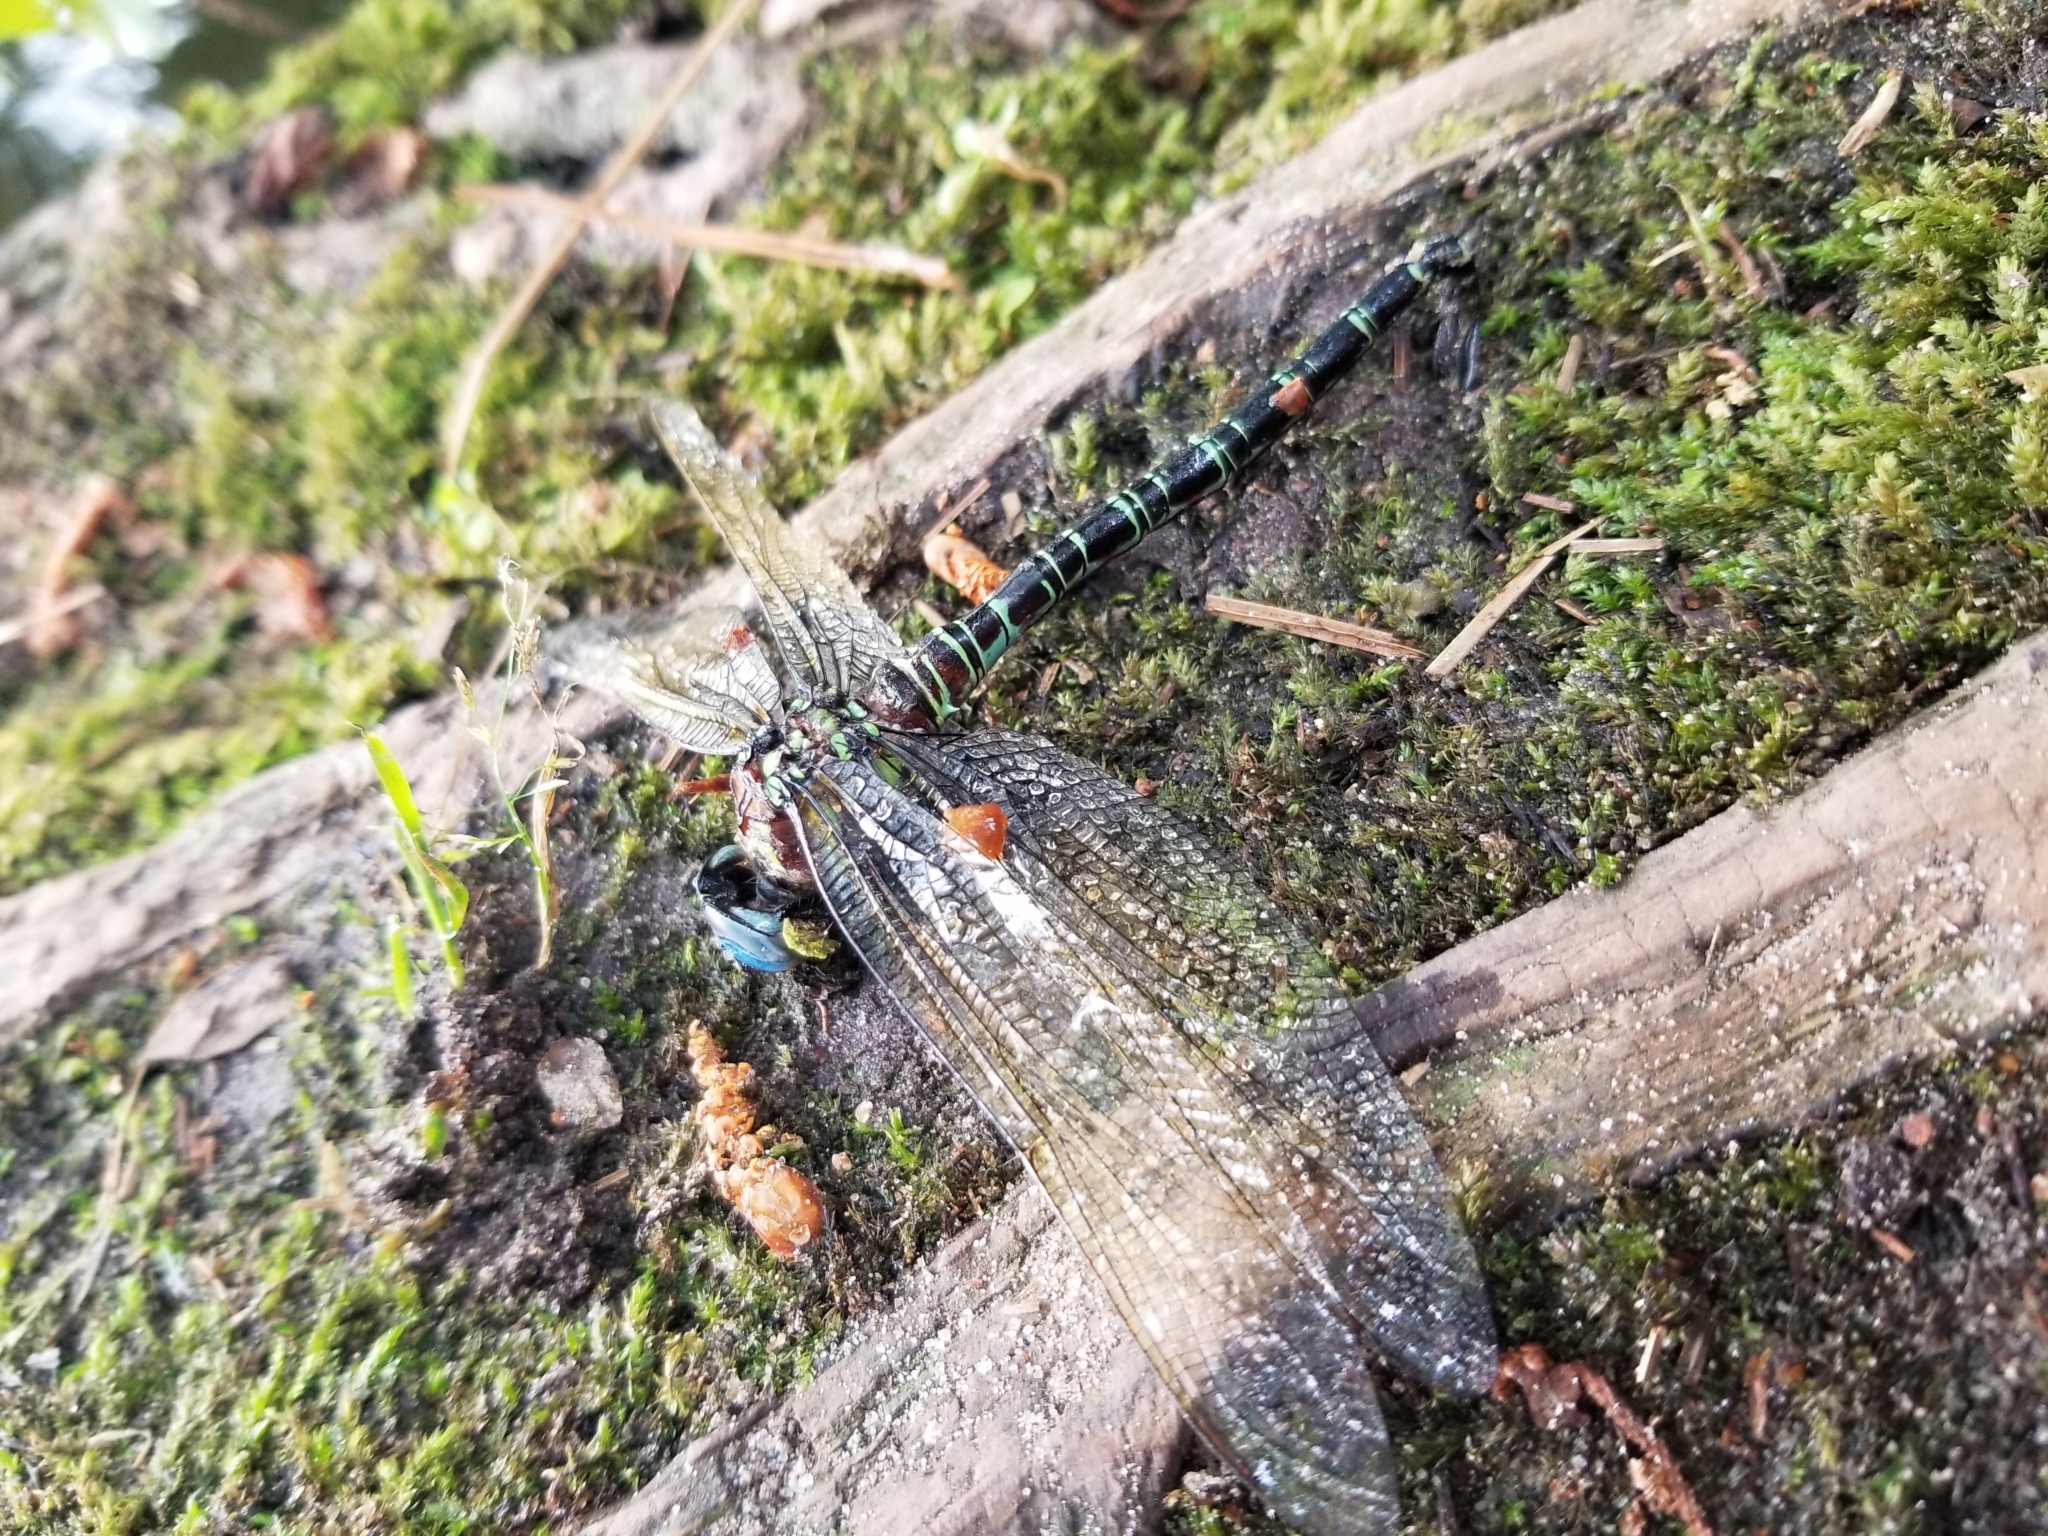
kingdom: Animalia
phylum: Arthropoda
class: Insecta
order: Odonata
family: Aeshnidae
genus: Epiaeschna
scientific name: Epiaeschna heros
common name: Swamp darner
